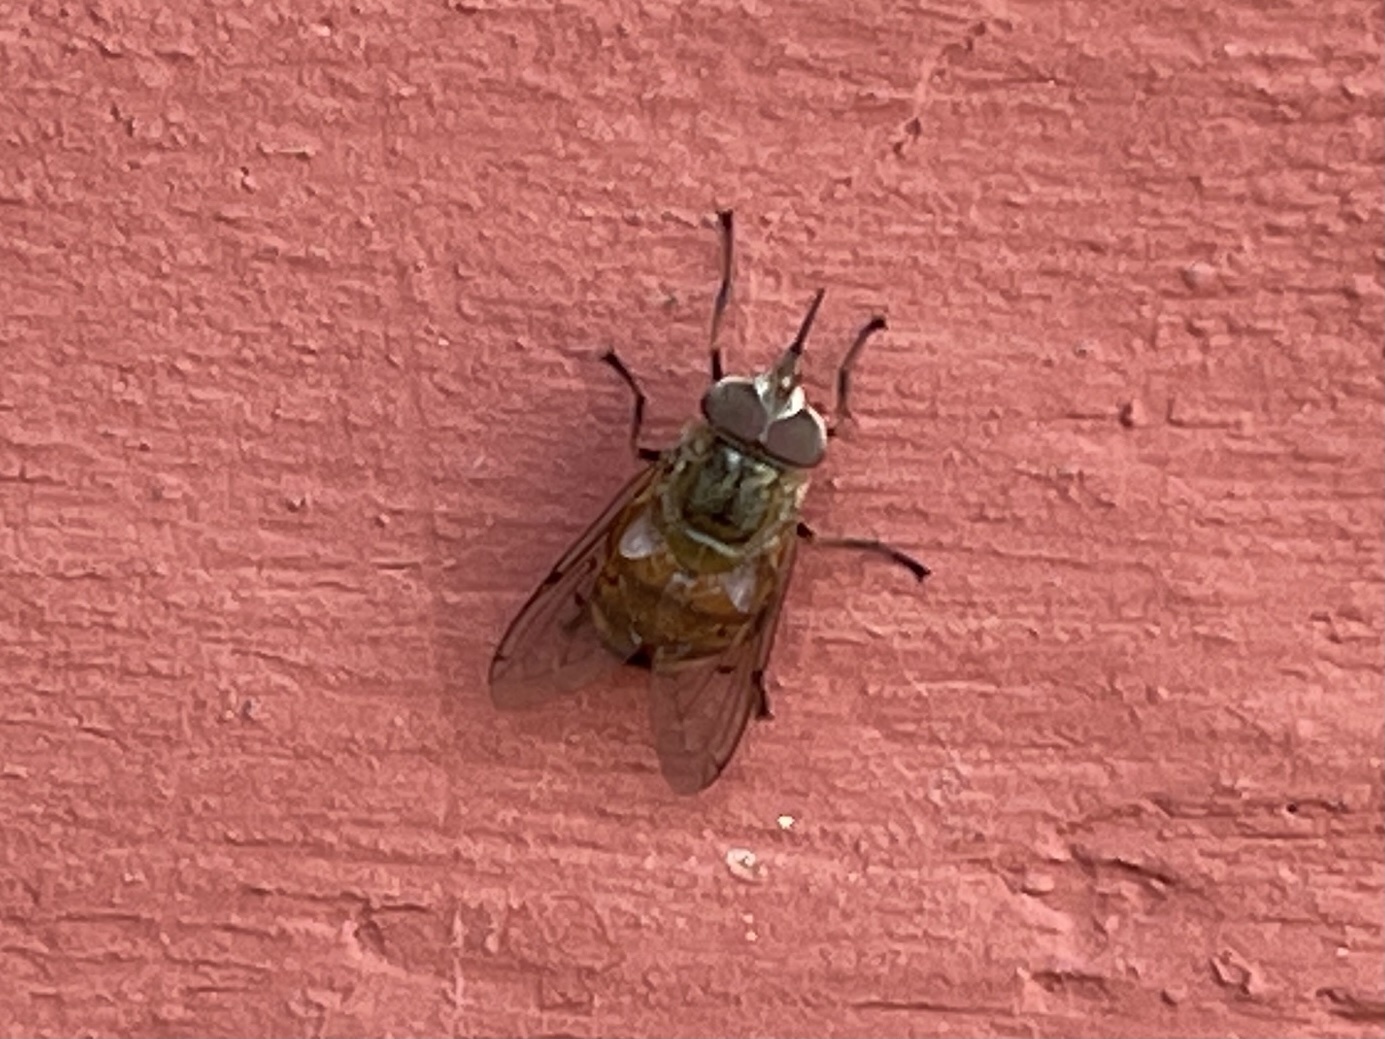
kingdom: Animalia
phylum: Arthropoda
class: Insecta
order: Diptera
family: Syrphidae
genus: Copestylum
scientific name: Copestylum haagii
